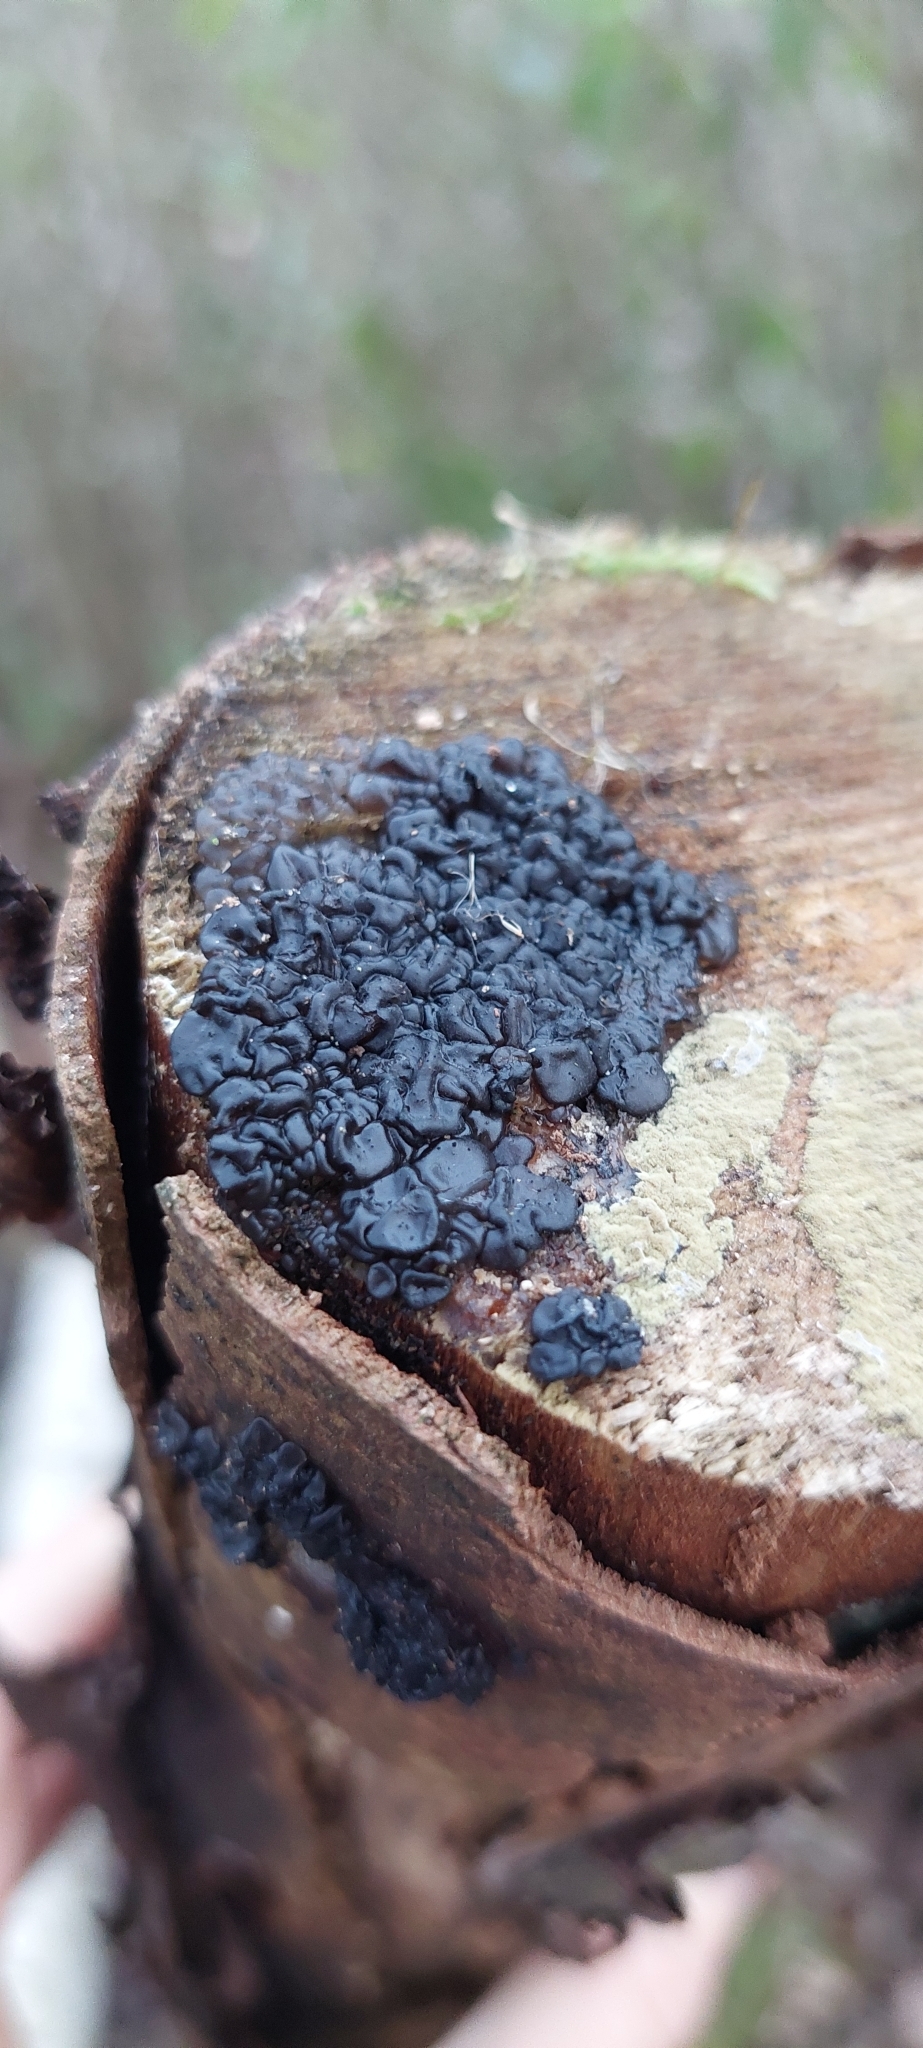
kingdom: Fungi
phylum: Basidiomycota
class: Agaricomycetes
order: Auriculariales
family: Auriculariaceae
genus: Exidia
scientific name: Exidia nigricans
